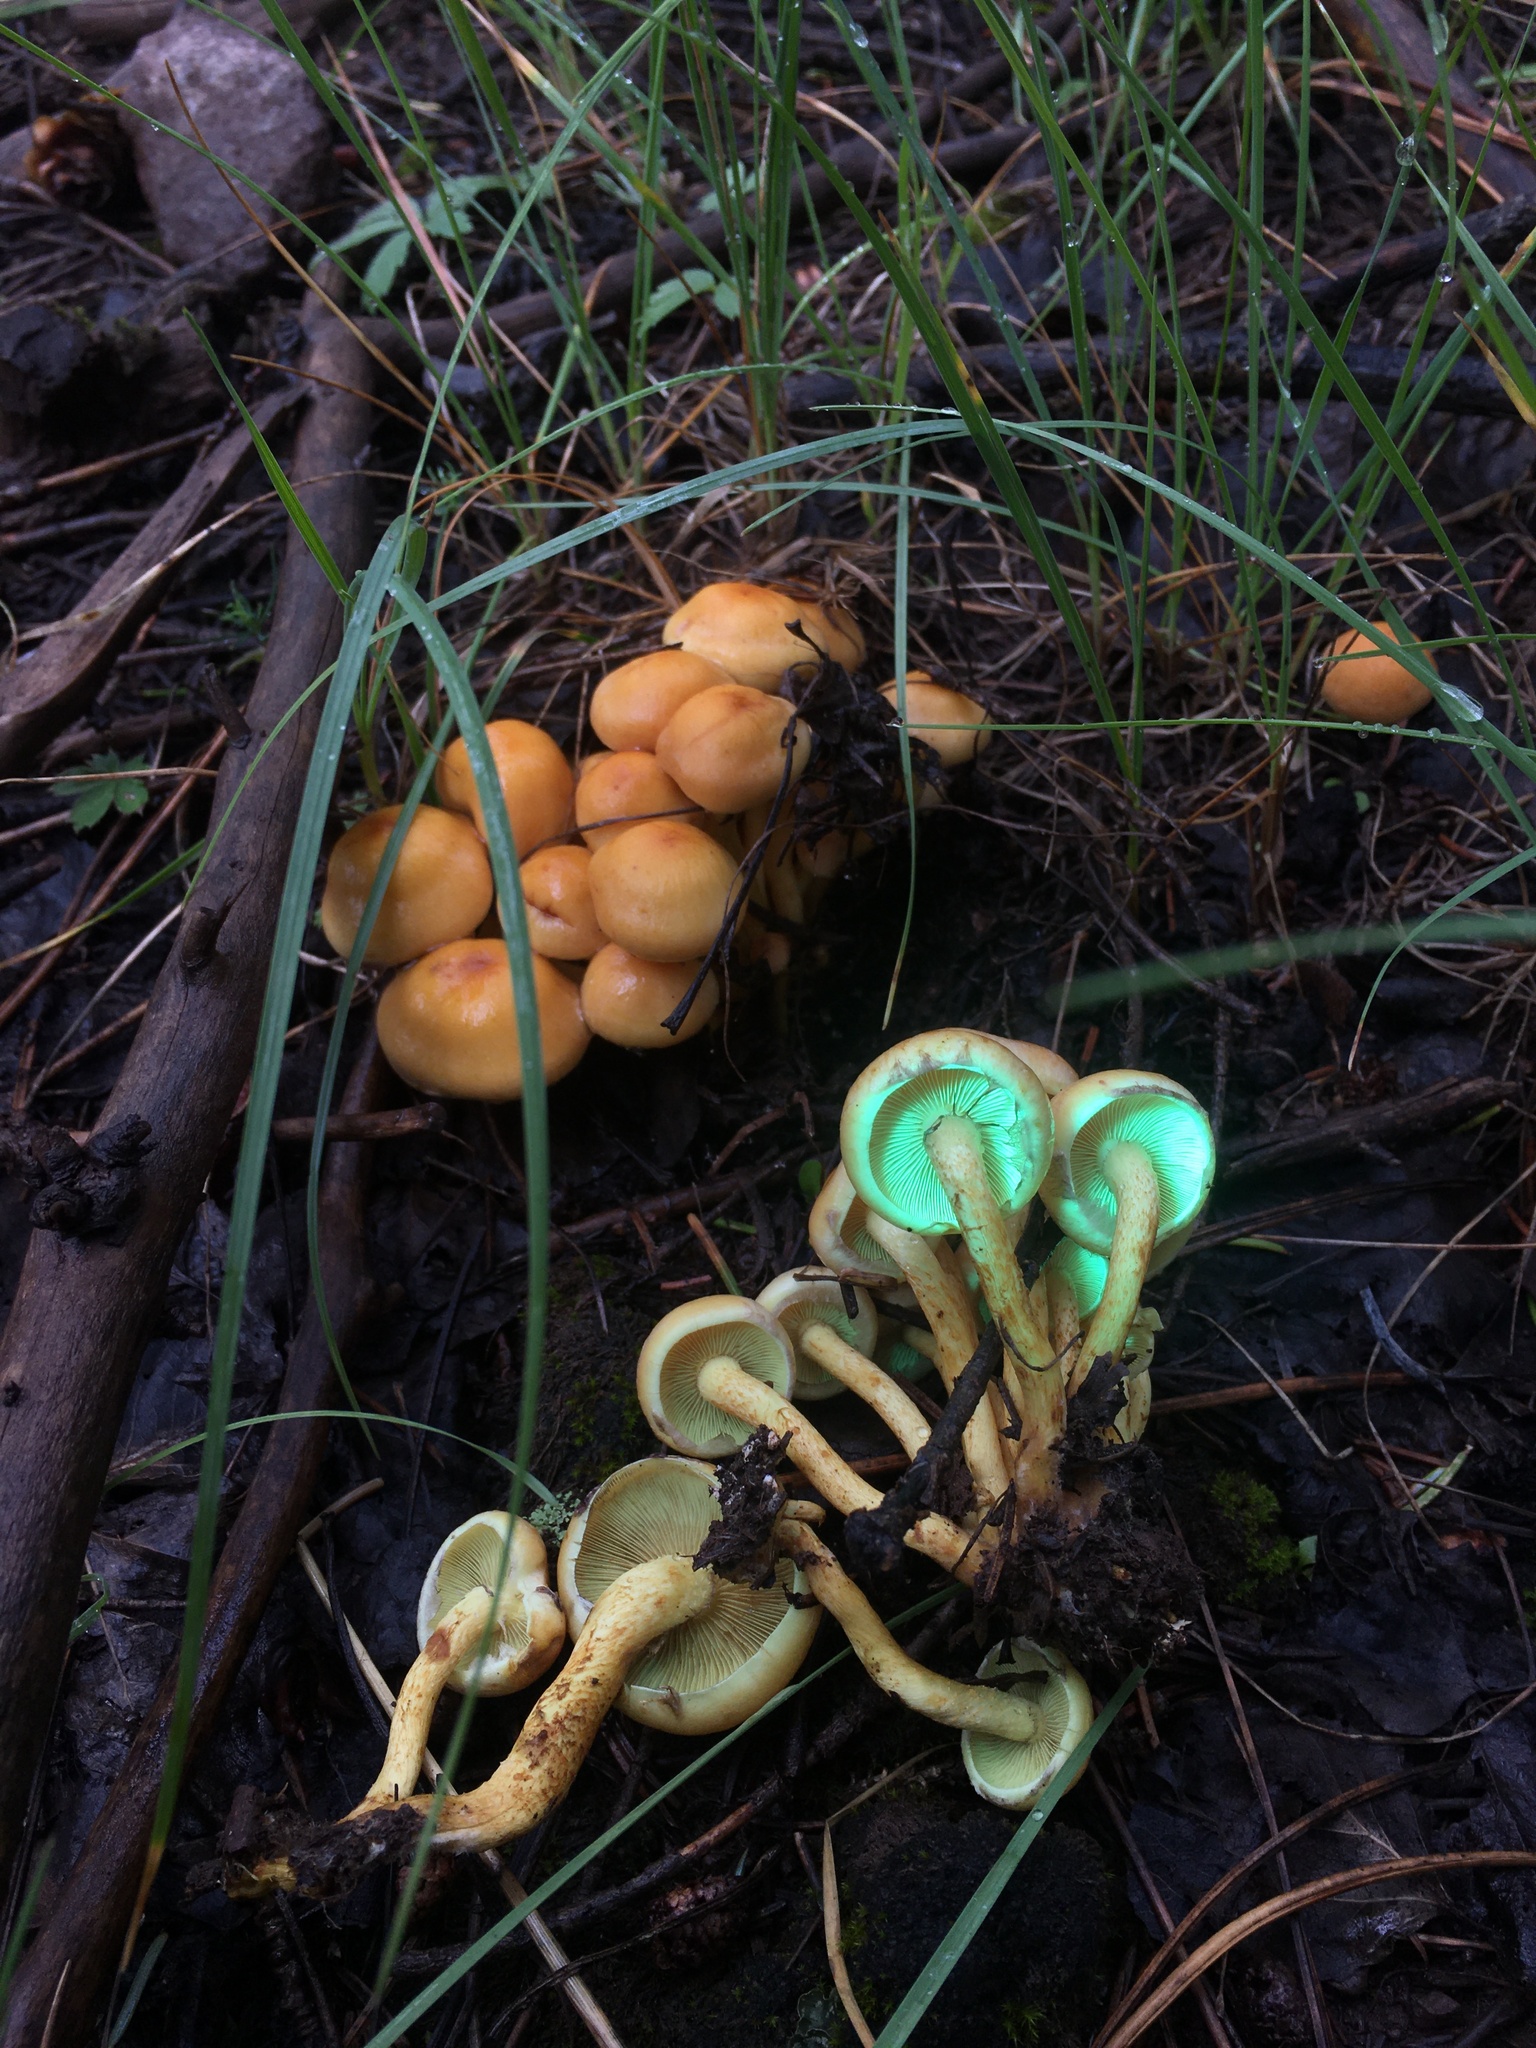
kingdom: Fungi
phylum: Basidiomycota
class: Agaricomycetes
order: Agaricales
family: Strophariaceae
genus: Hypholoma
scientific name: Hypholoma capnoides
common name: Conifer tuft
